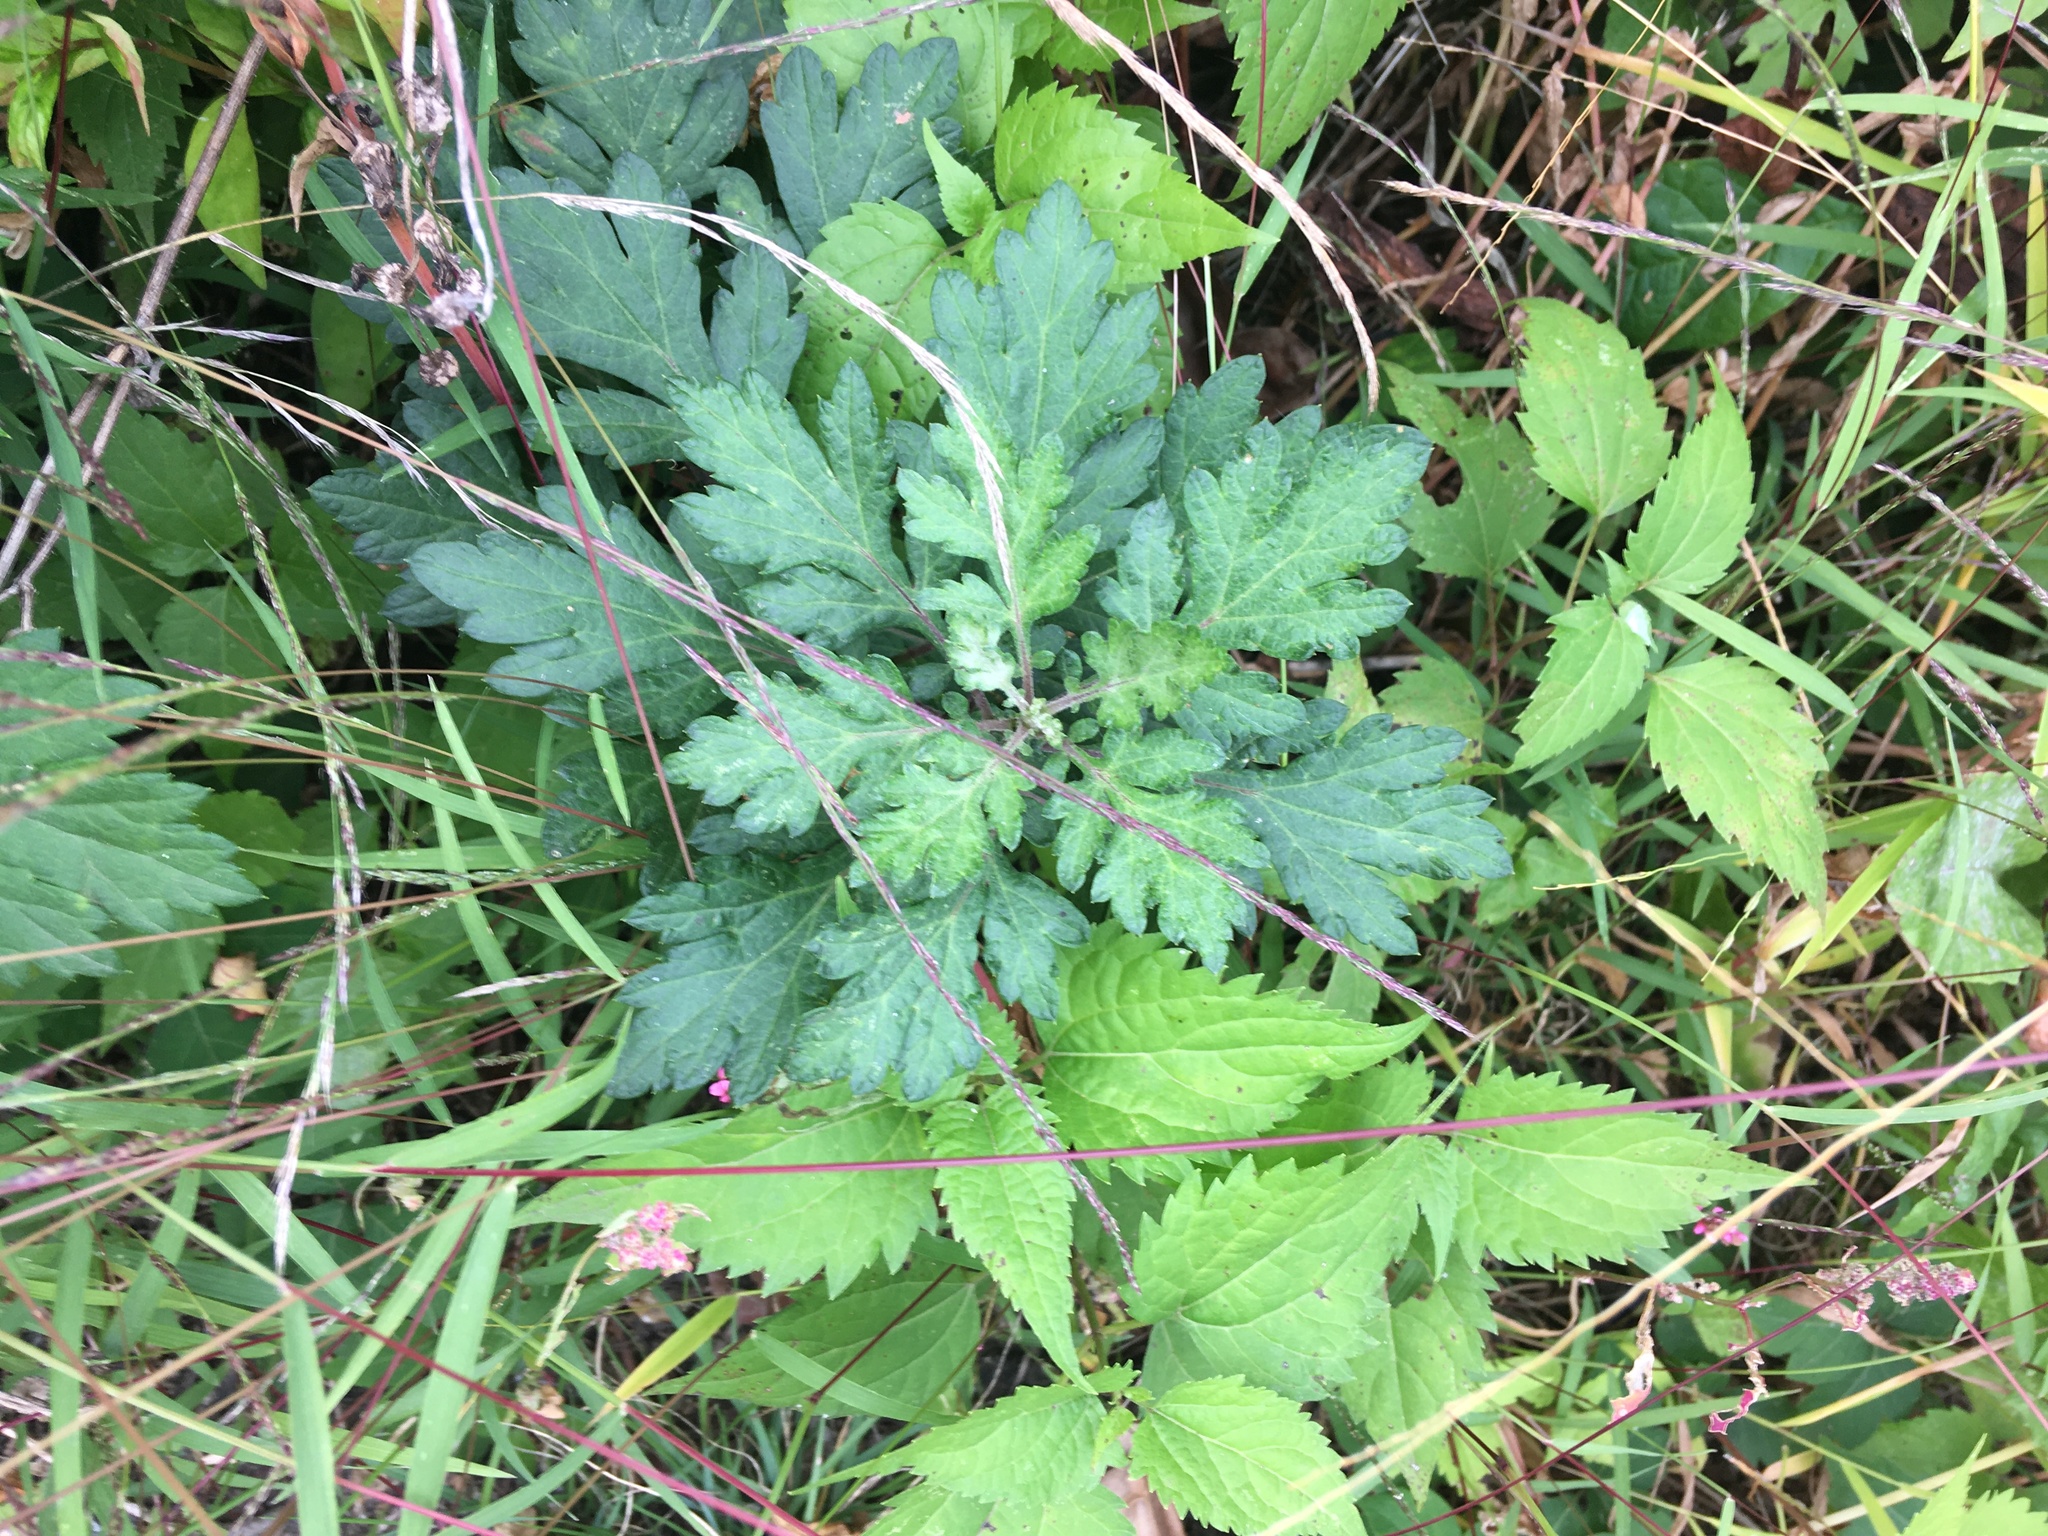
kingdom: Plantae
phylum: Tracheophyta
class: Magnoliopsida
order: Asterales
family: Asteraceae
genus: Artemisia
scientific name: Artemisia vulgaris
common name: Mugwort
